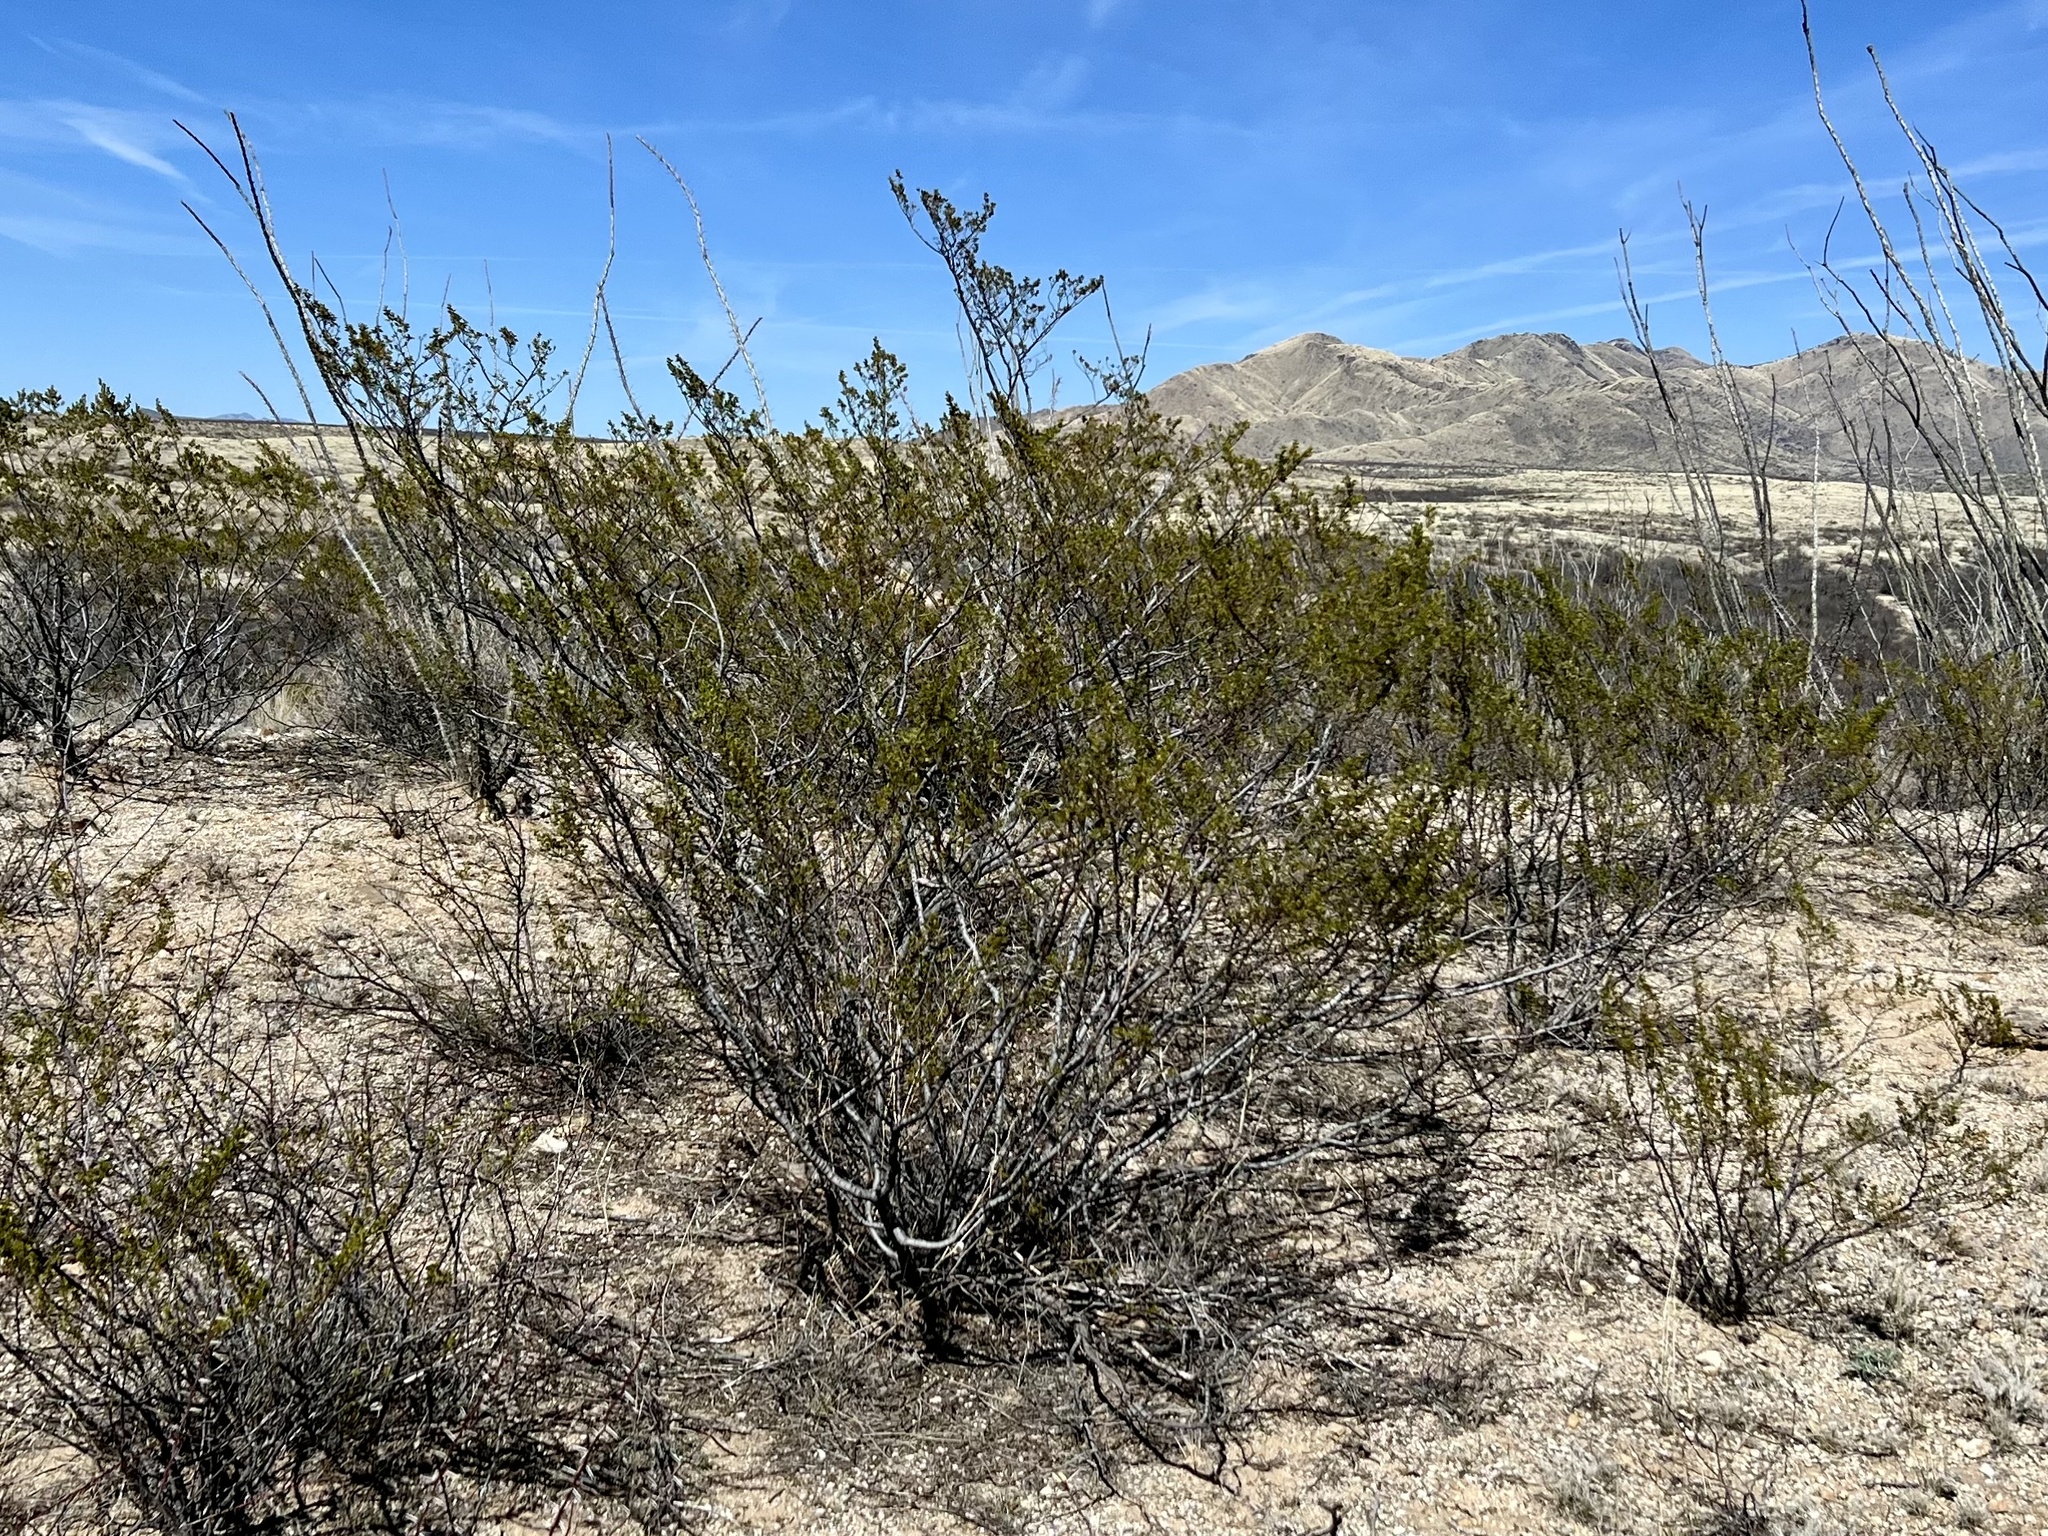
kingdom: Plantae
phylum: Tracheophyta
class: Magnoliopsida
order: Zygophyllales
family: Zygophyllaceae
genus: Larrea
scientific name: Larrea tridentata
